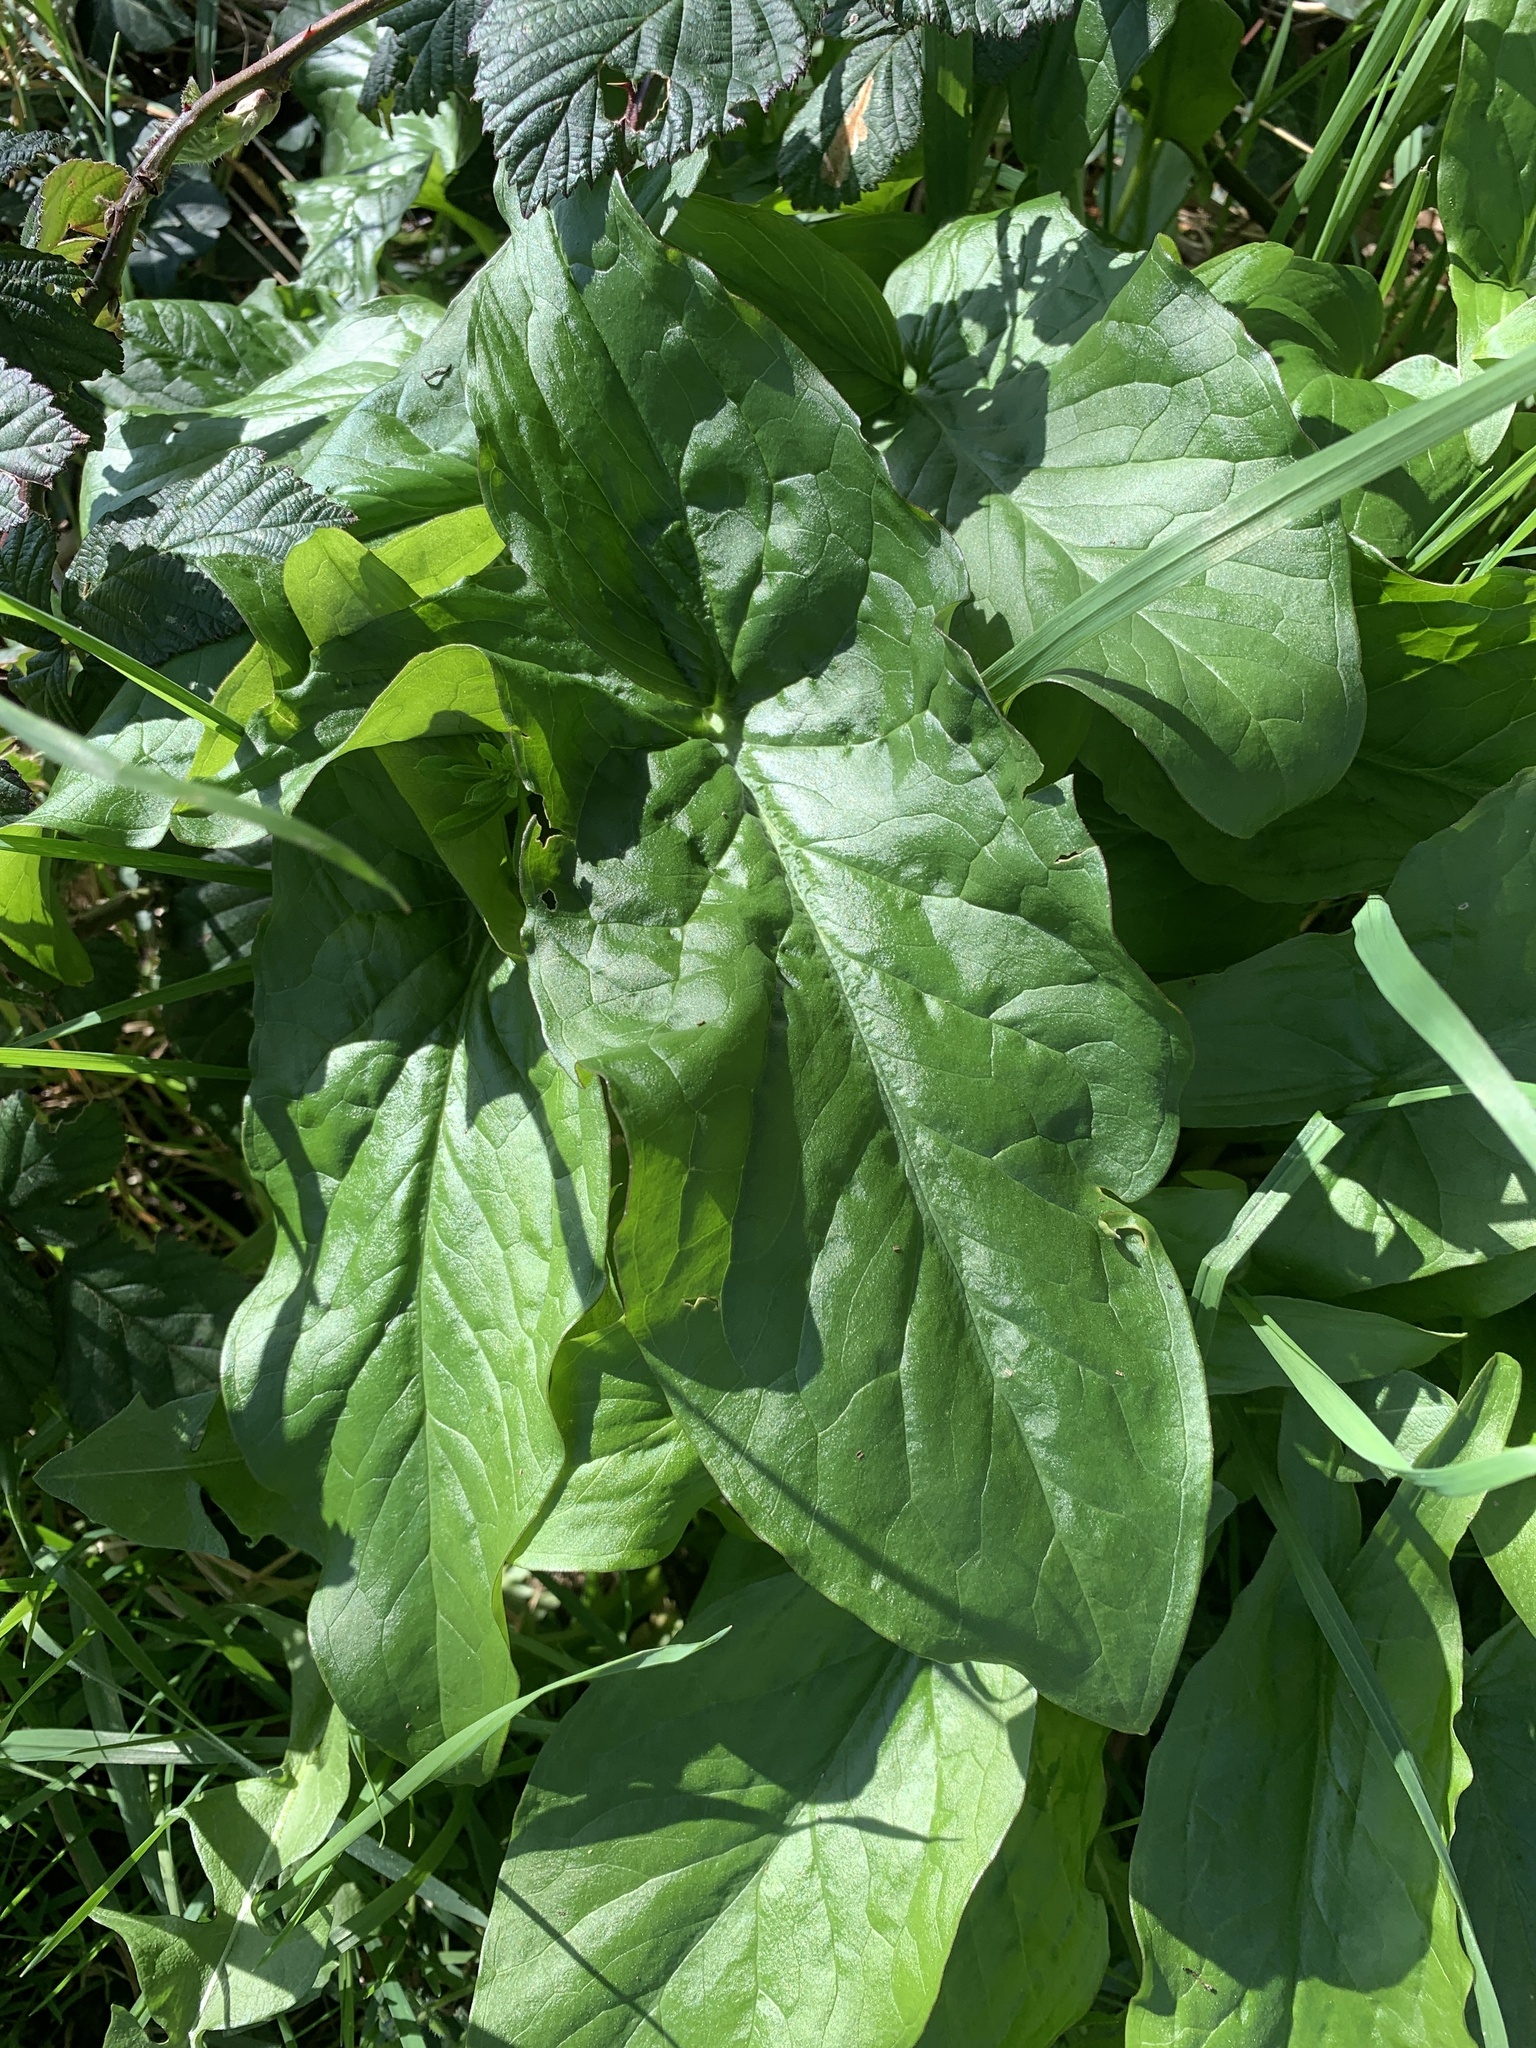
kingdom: Plantae
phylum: Tracheophyta
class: Liliopsida
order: Alismatales
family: Araceae
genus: Arum
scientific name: Arum maculatum
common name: Lords-and-ladies
